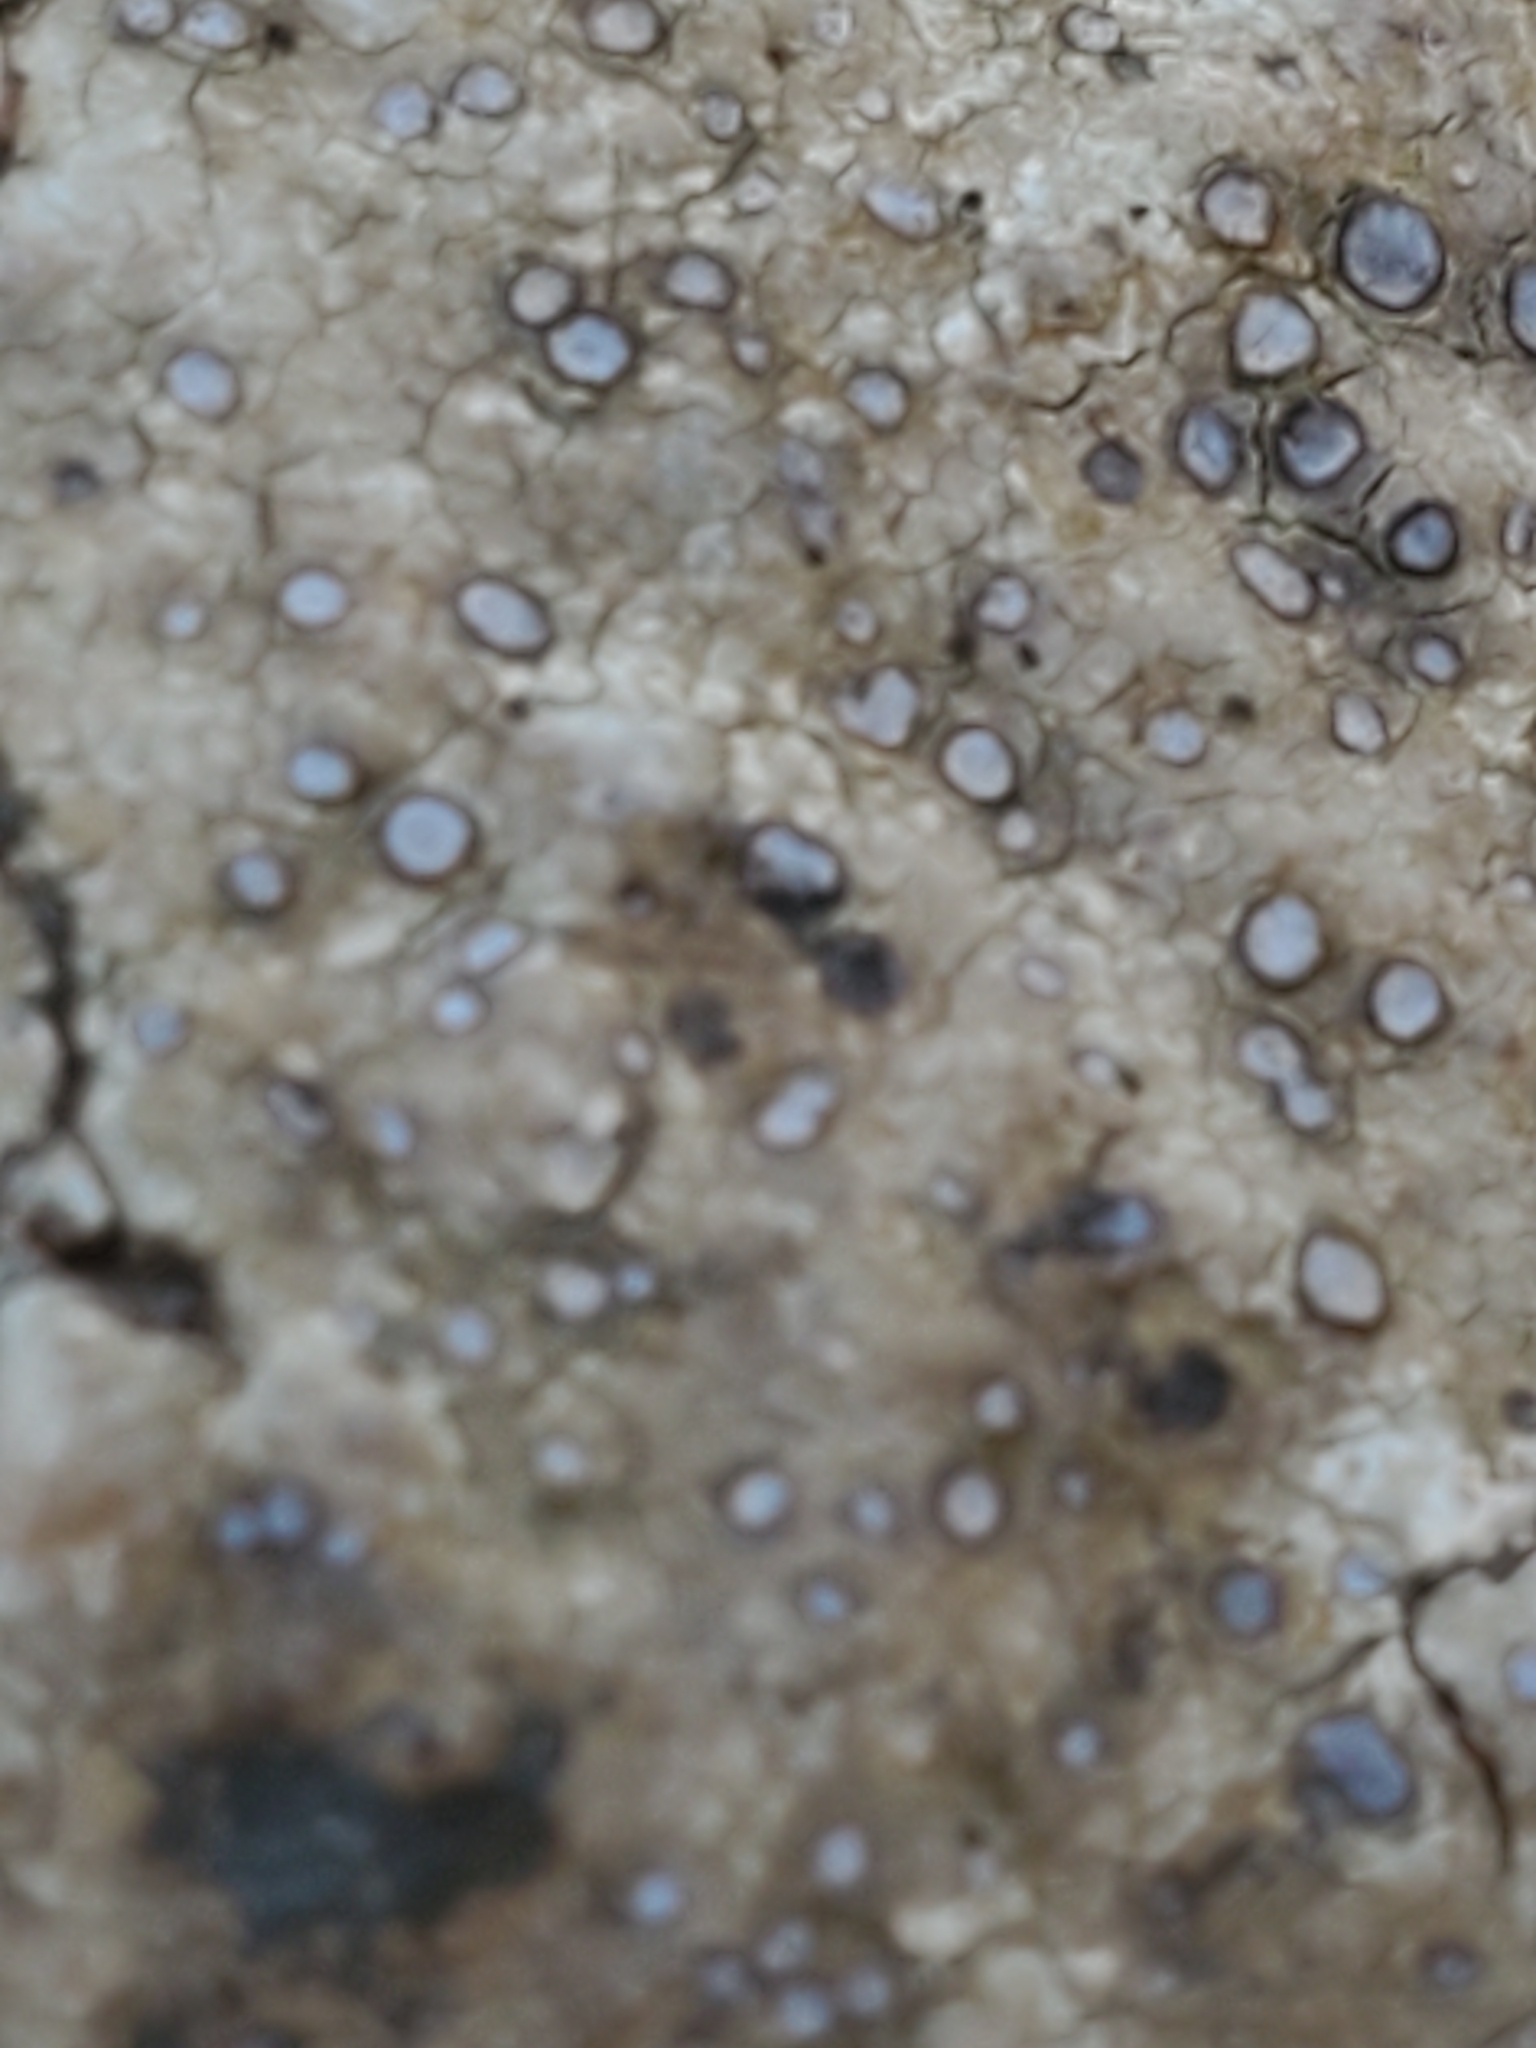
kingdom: Fungi
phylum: Ascomycota
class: Lecanoromycetes
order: Lecideales
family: Lecideaceae
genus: Porpidia
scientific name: Porpidia albocaerulescens
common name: Smokey-eyed boulder lichen
